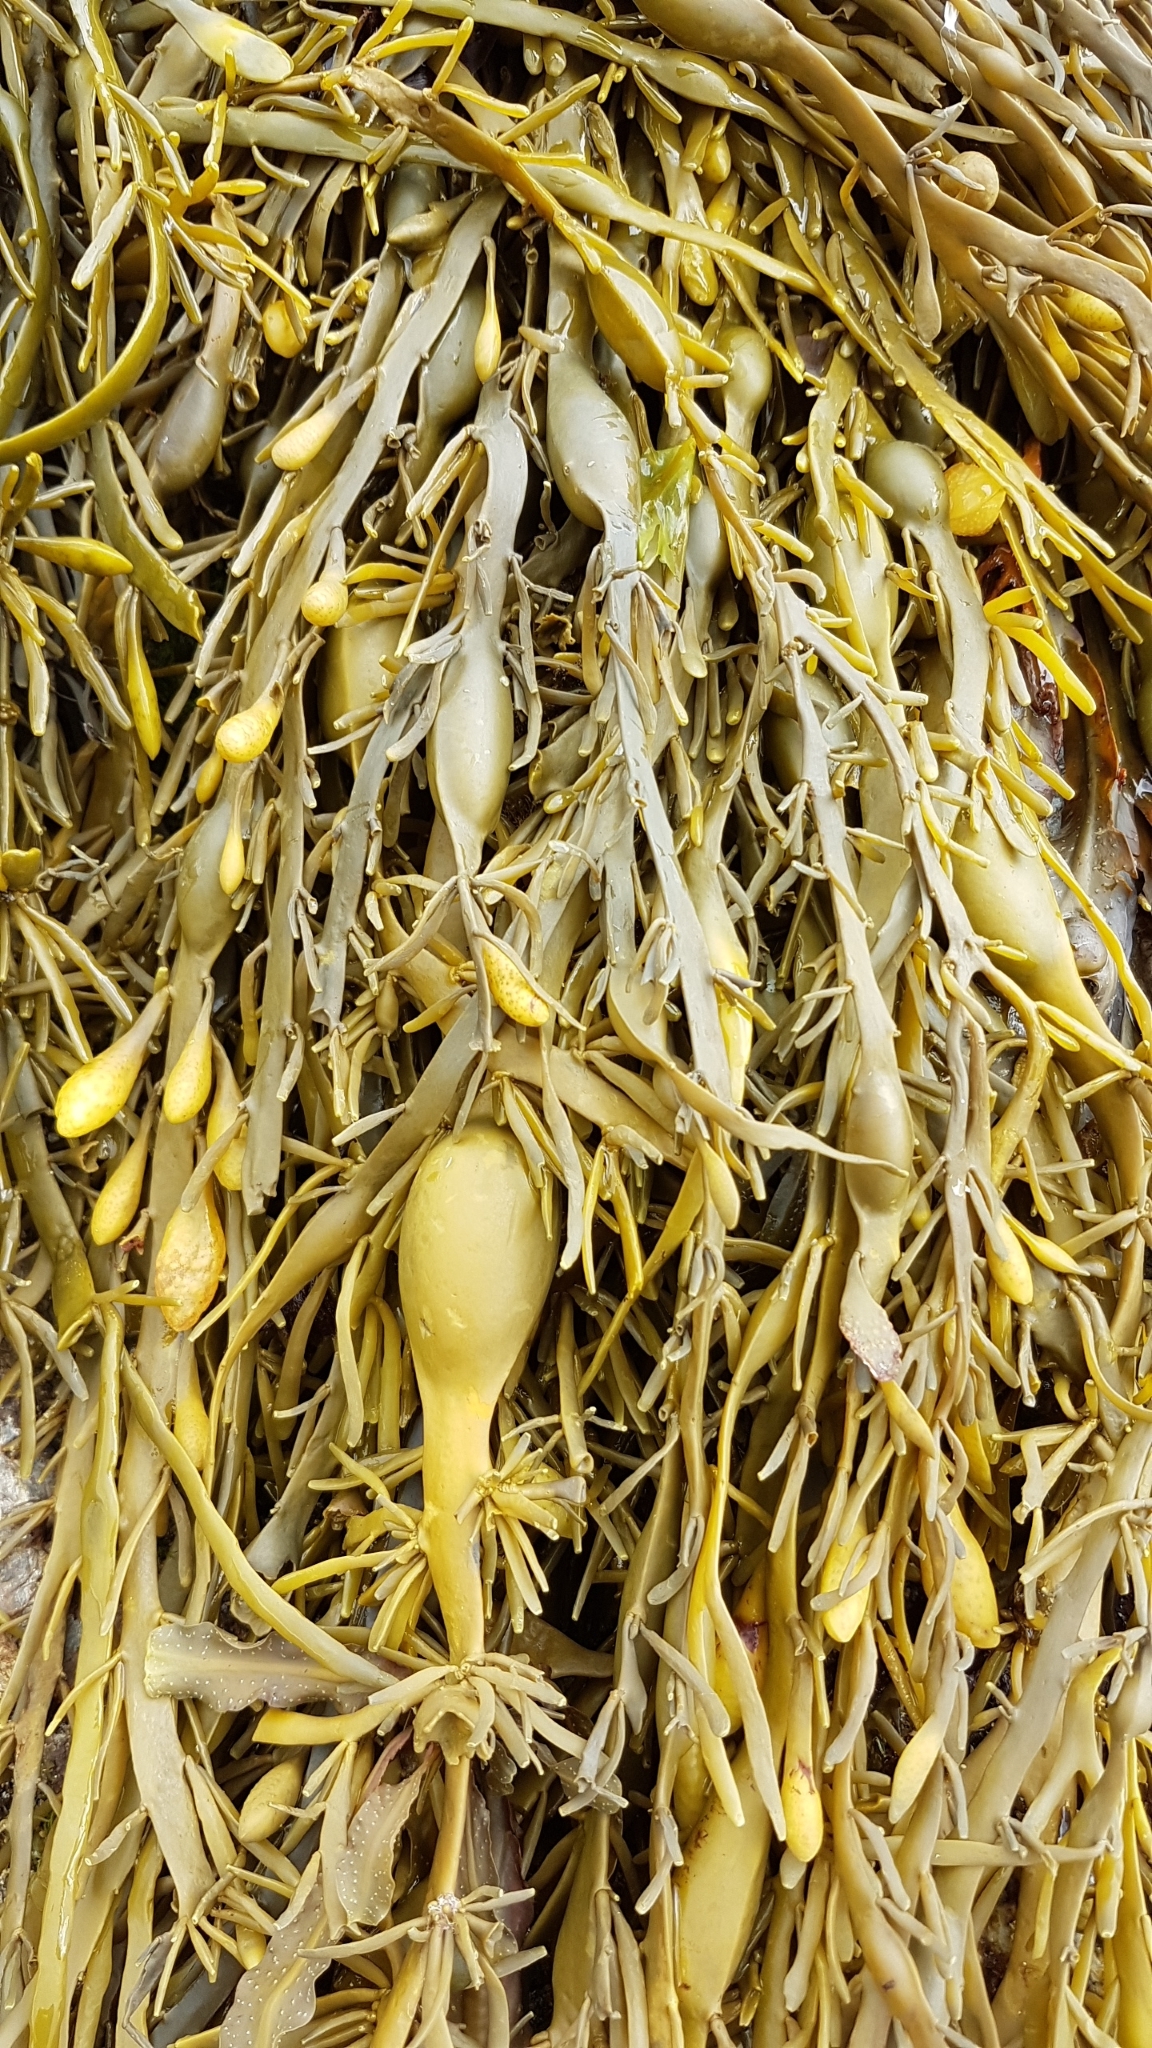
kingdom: Chromista
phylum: Ochrophyta
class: Phaeophyceae
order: Fucales
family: Fucaceae
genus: Ascophyllum
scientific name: Ascophyllum nodosum
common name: Knotted wrack
